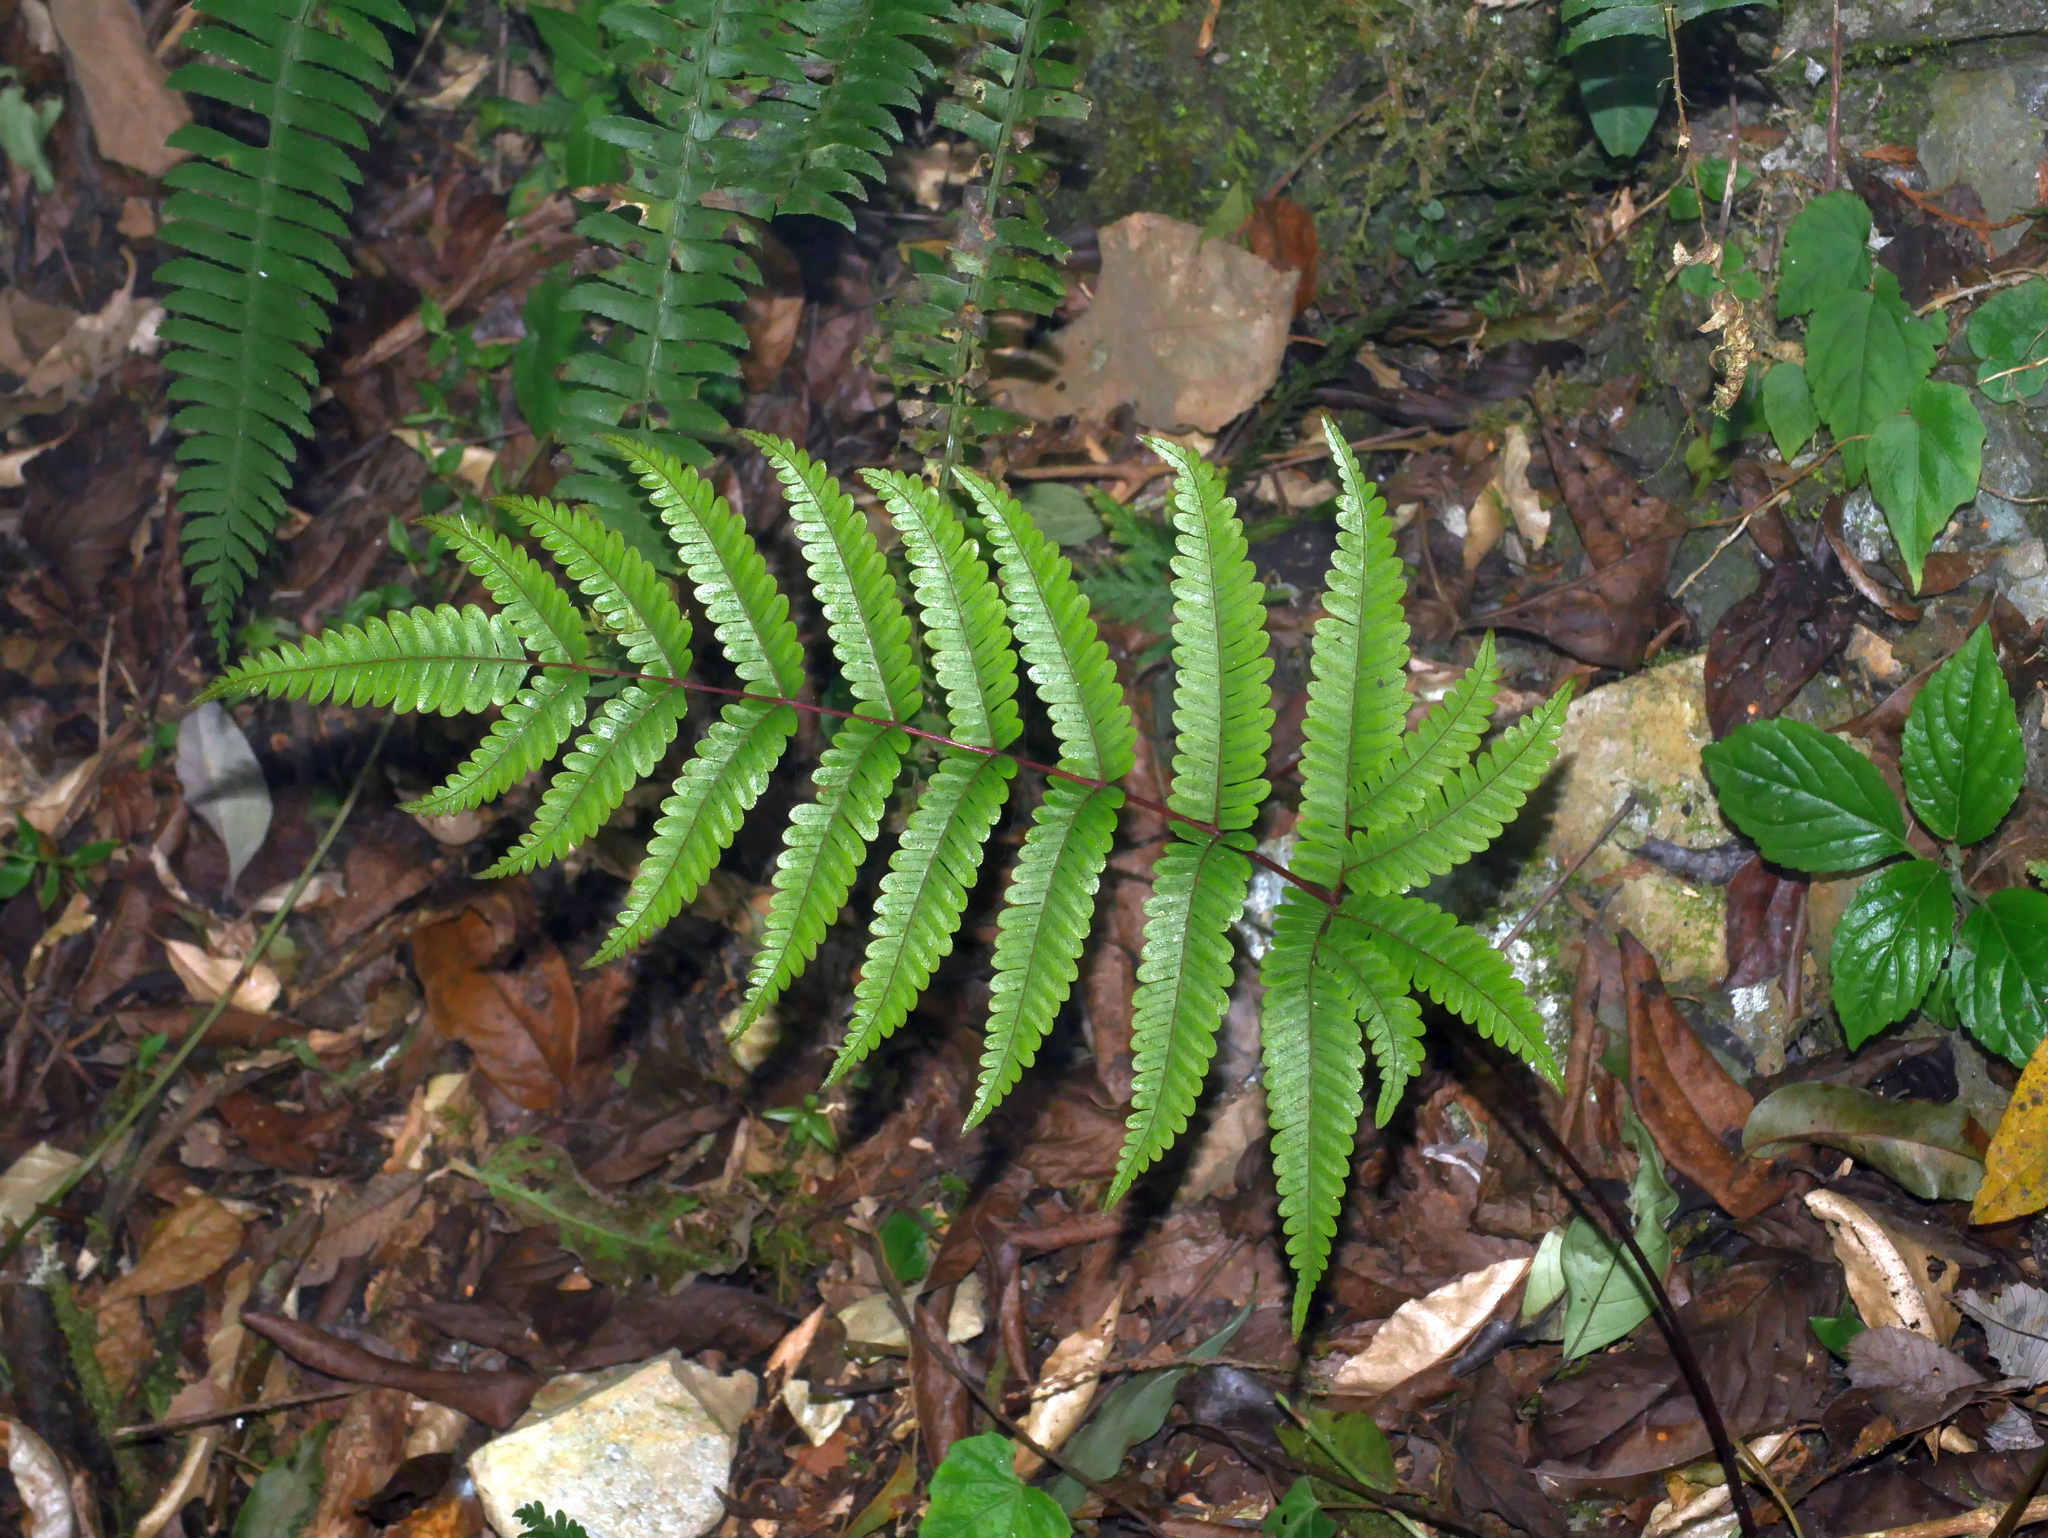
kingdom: Plantae
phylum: Tracheophyta
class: Polypodiopsida
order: Polypodiales
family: Pteridaceae
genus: Pteris
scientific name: Pteris setulosocostulata
